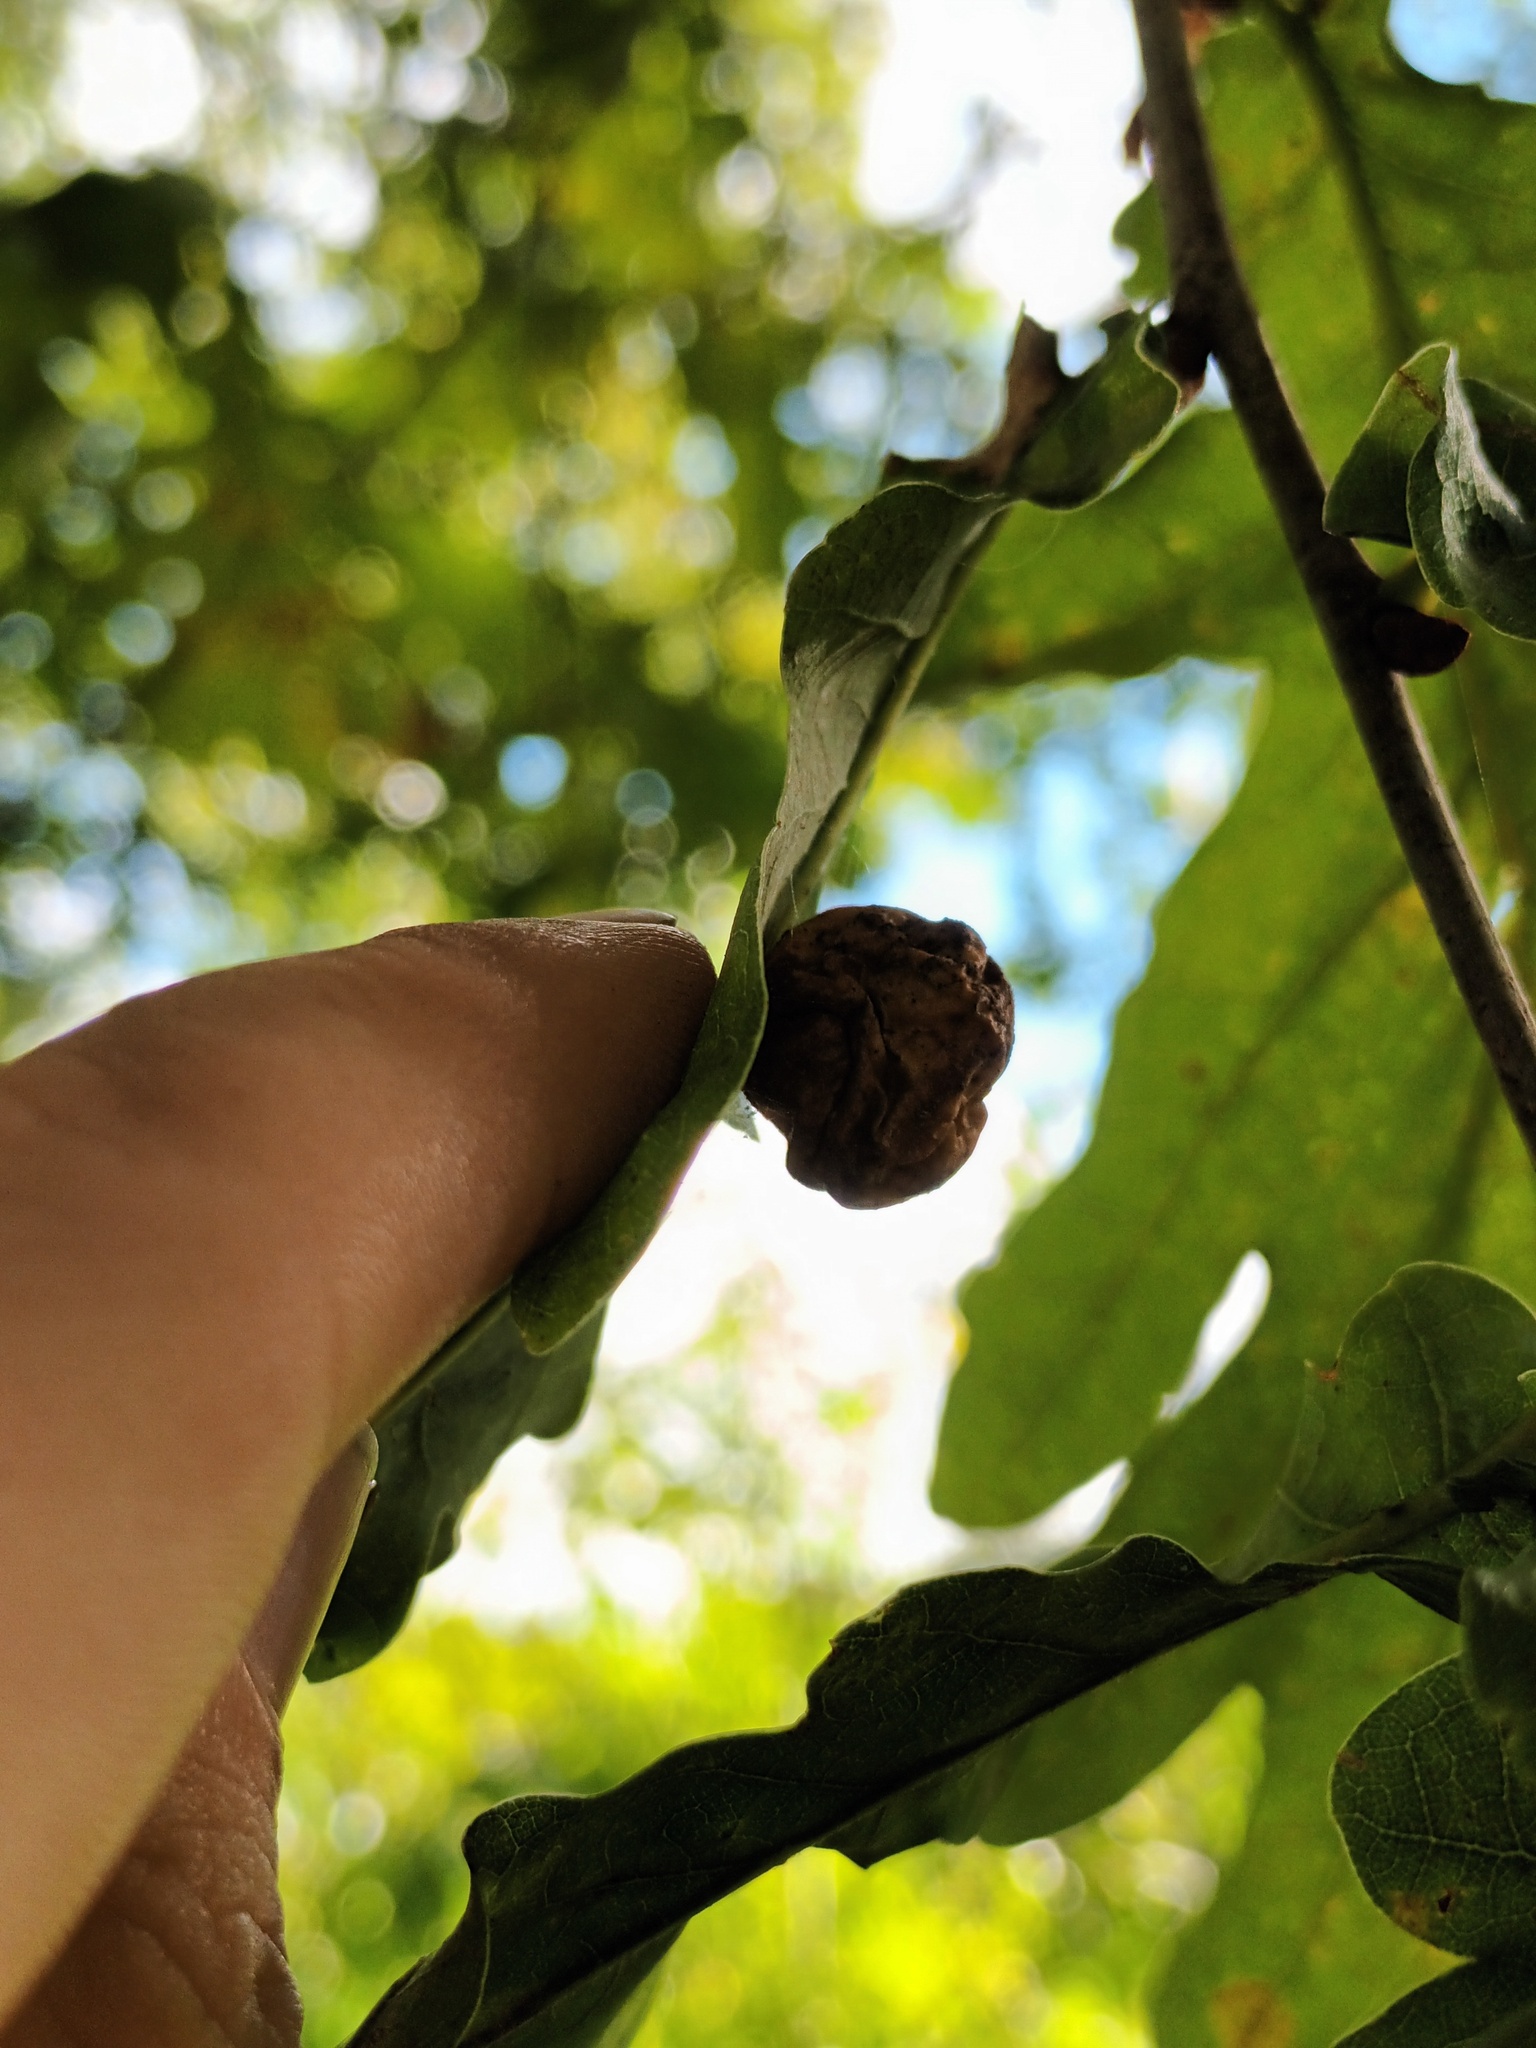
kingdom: Animalia
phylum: Arthropoda
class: Insecta
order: Hymenoptera
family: Cynipidae
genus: Cynips
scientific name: Cynips quercusfolii
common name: Cherry gall
